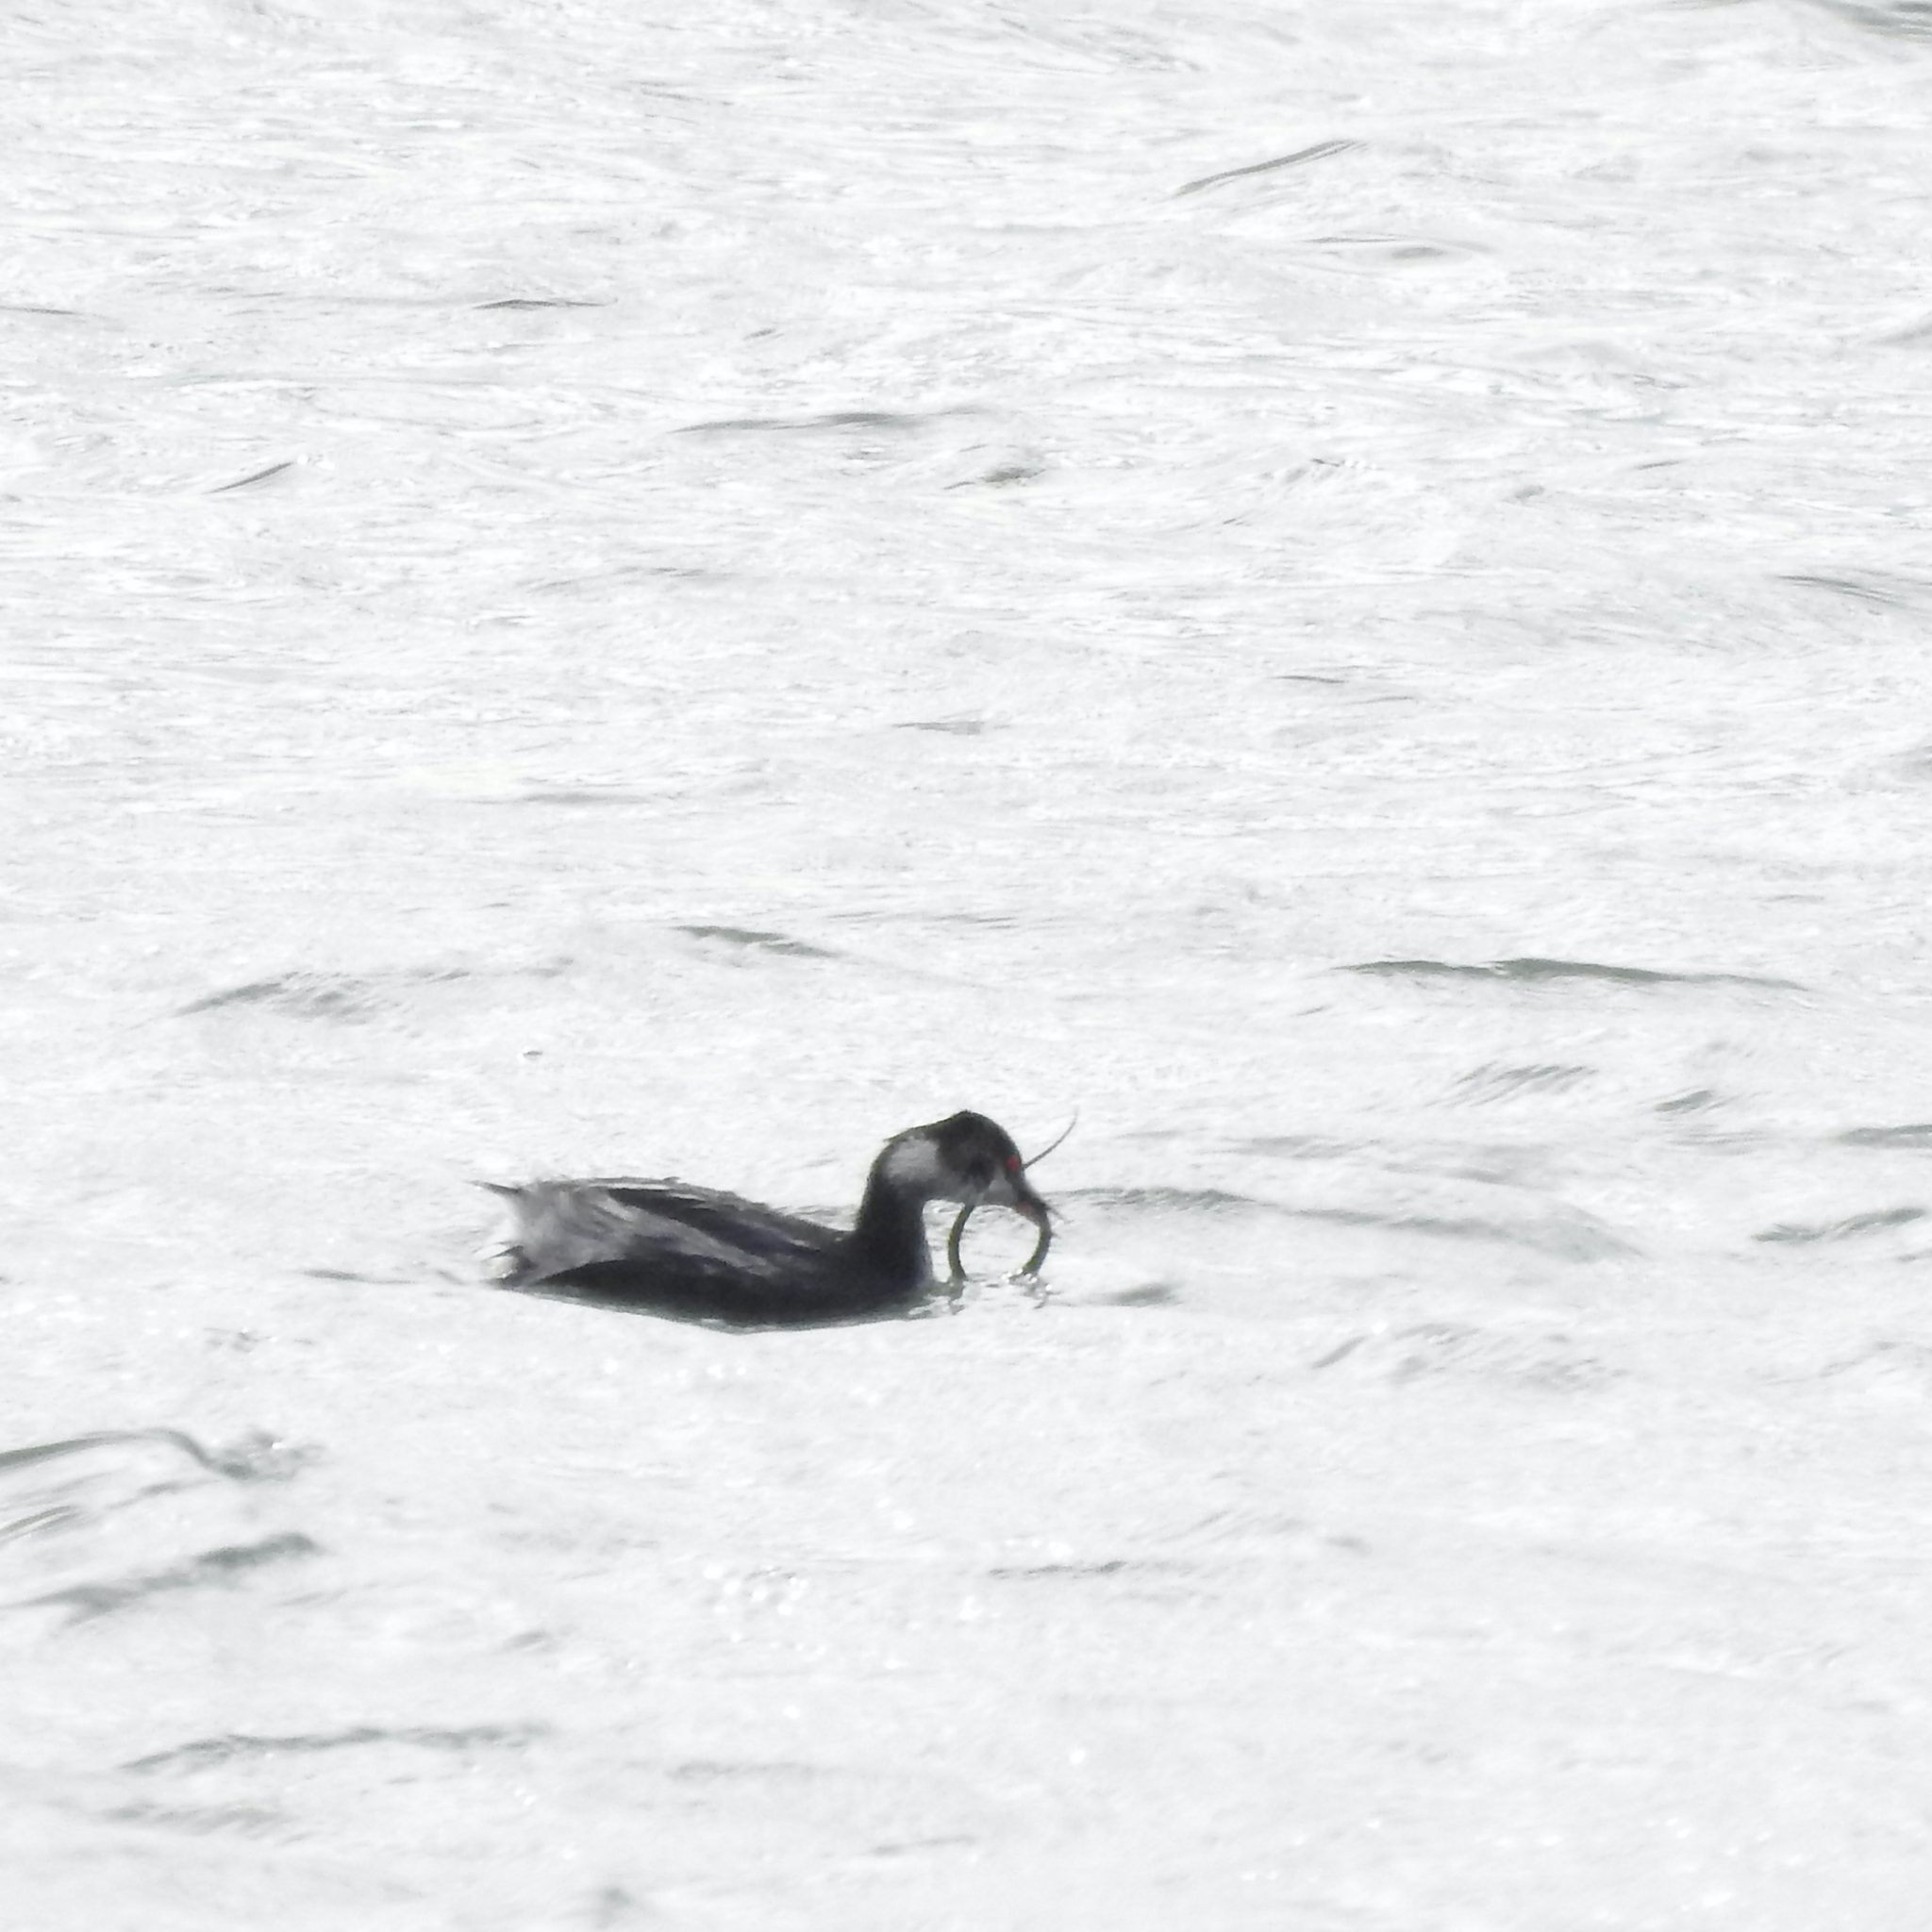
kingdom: Animalia
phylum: Chordata
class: Aves
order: Podicipediformes
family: Podicipedidae
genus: Podiceps
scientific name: Podiceps nigricollis
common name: Black-necked grebe
